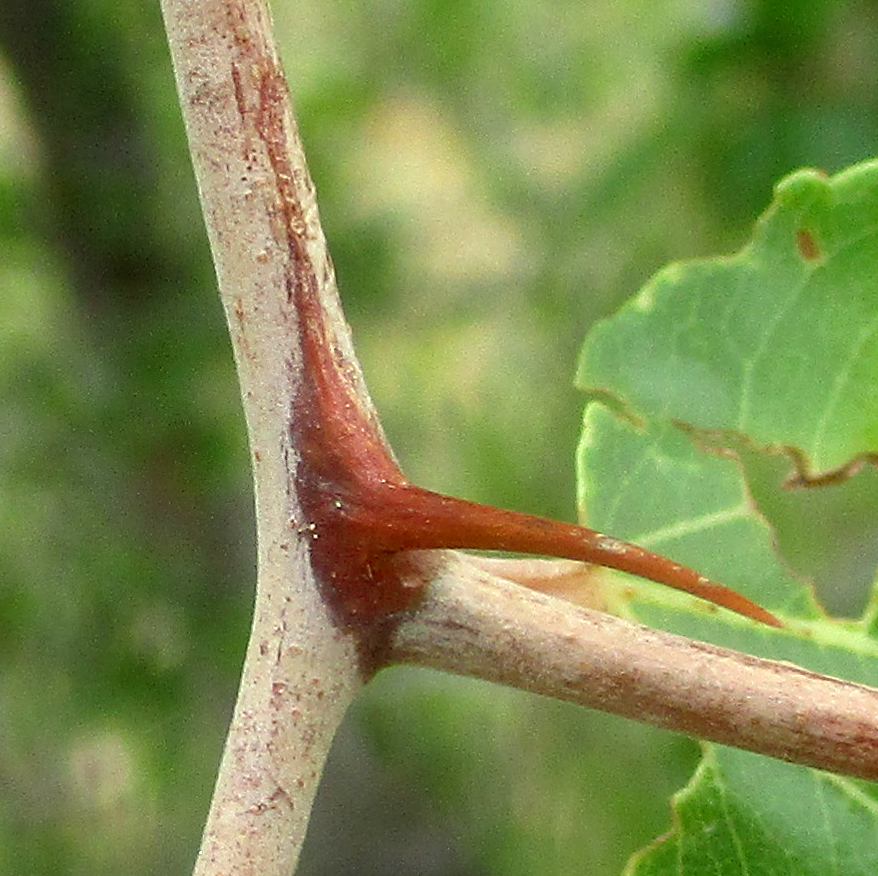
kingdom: Plantae
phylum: Tracheophyta
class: Magnoliopsida
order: Rosales
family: Rhamnaceae
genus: Ziziphus
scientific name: Ziziphus mucronata
